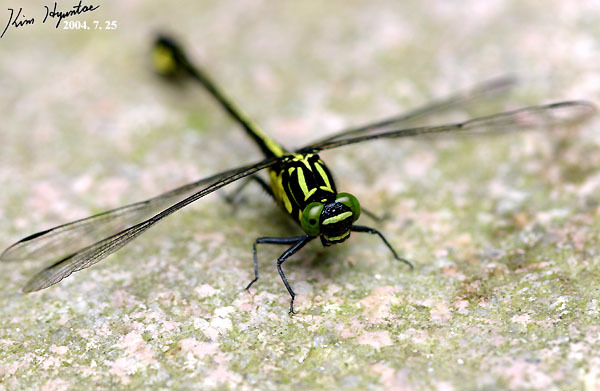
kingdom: Animalia
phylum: Arthropoda
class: Insecta
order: Odonata
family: Gomphidae
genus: Anisogomphus
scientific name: Anisogomphus maacki
